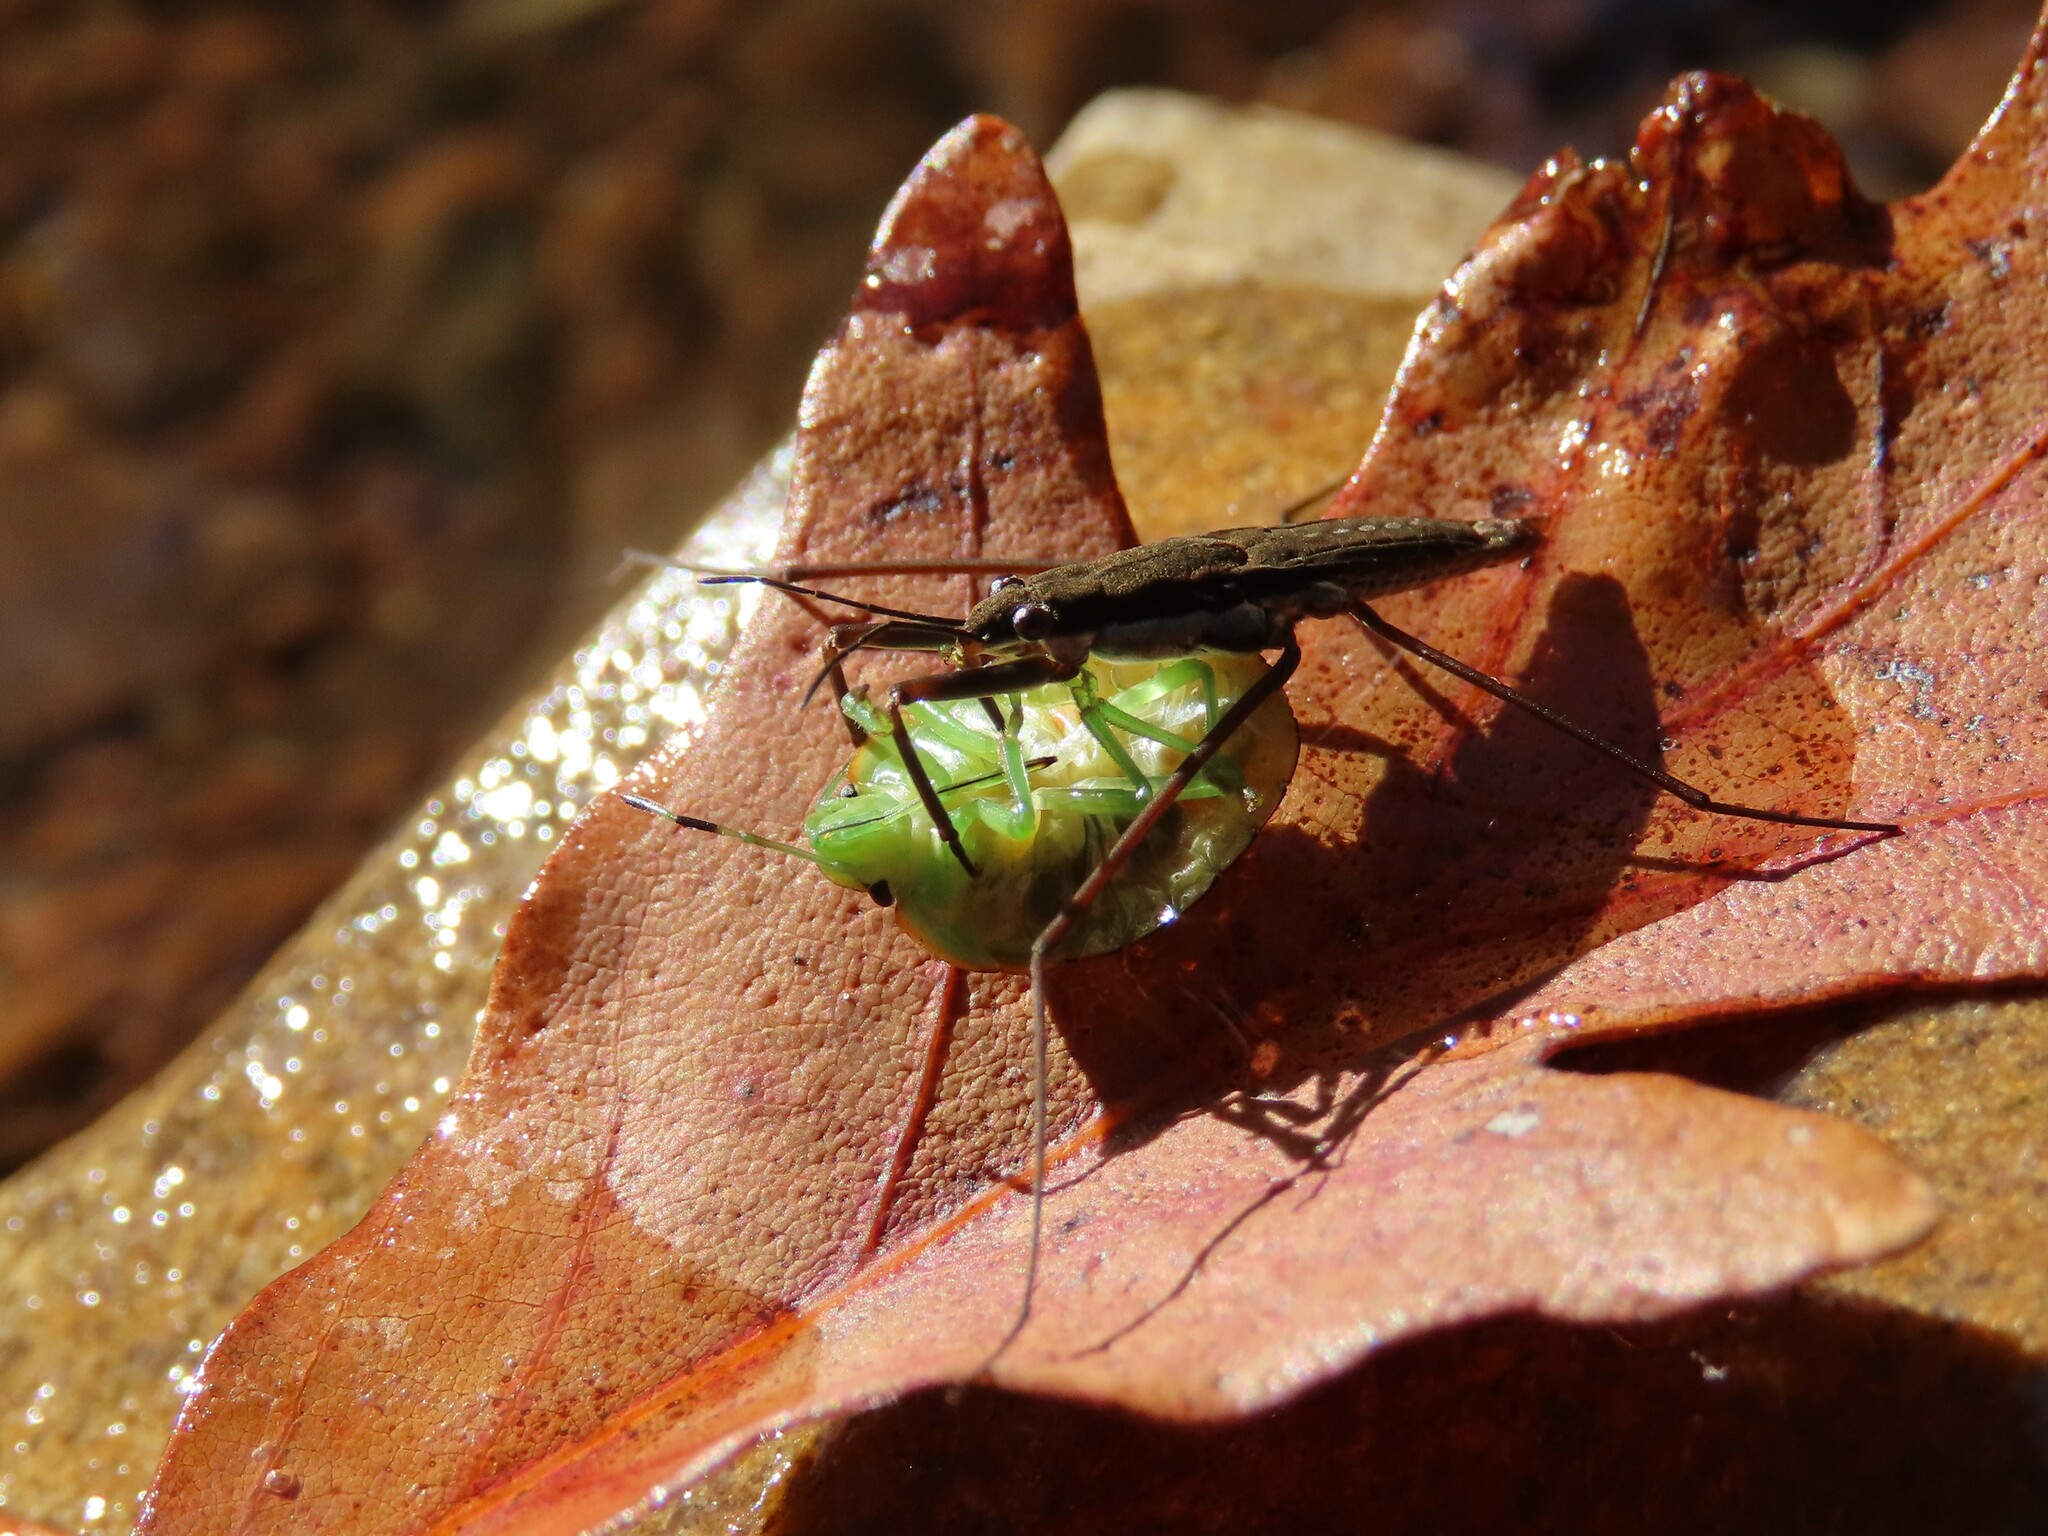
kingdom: Animalia
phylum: Arthropoda
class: Insecta
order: Hemiptera
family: Gerridae
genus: Aquarius
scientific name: Aquarius remigis
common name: Common water strider
